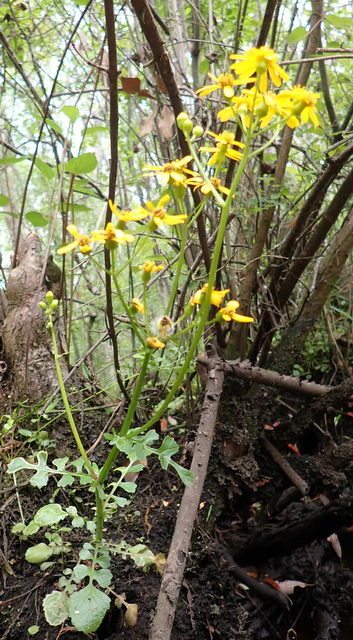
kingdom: Plantae
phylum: Tracheophyta
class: Magnoliopsida
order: Asterales
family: Asteraceae
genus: Packera
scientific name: Packera glabella
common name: Butterweed
